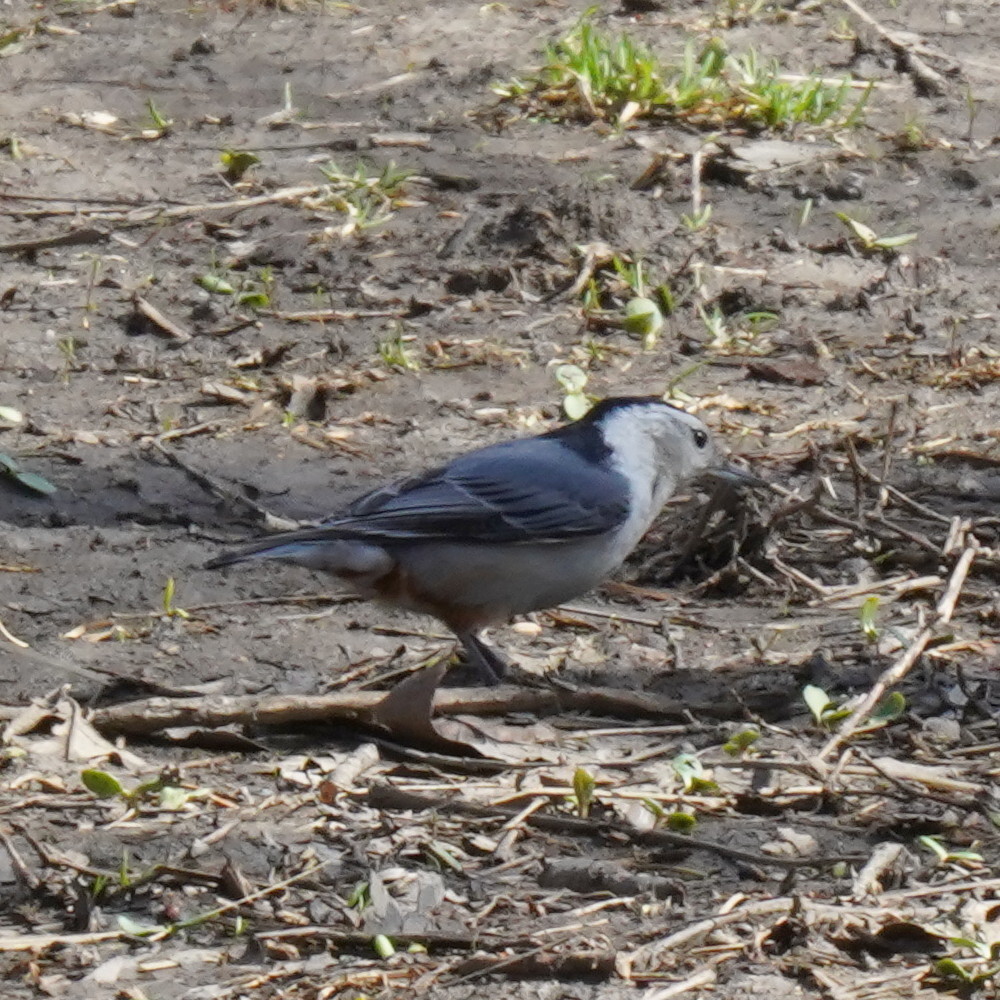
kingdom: Animalia
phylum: Chordata
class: Aves
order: Passeriformes
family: Sittidae
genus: Sitta
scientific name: Sitta carolinensis
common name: White-breasted nuthatch
